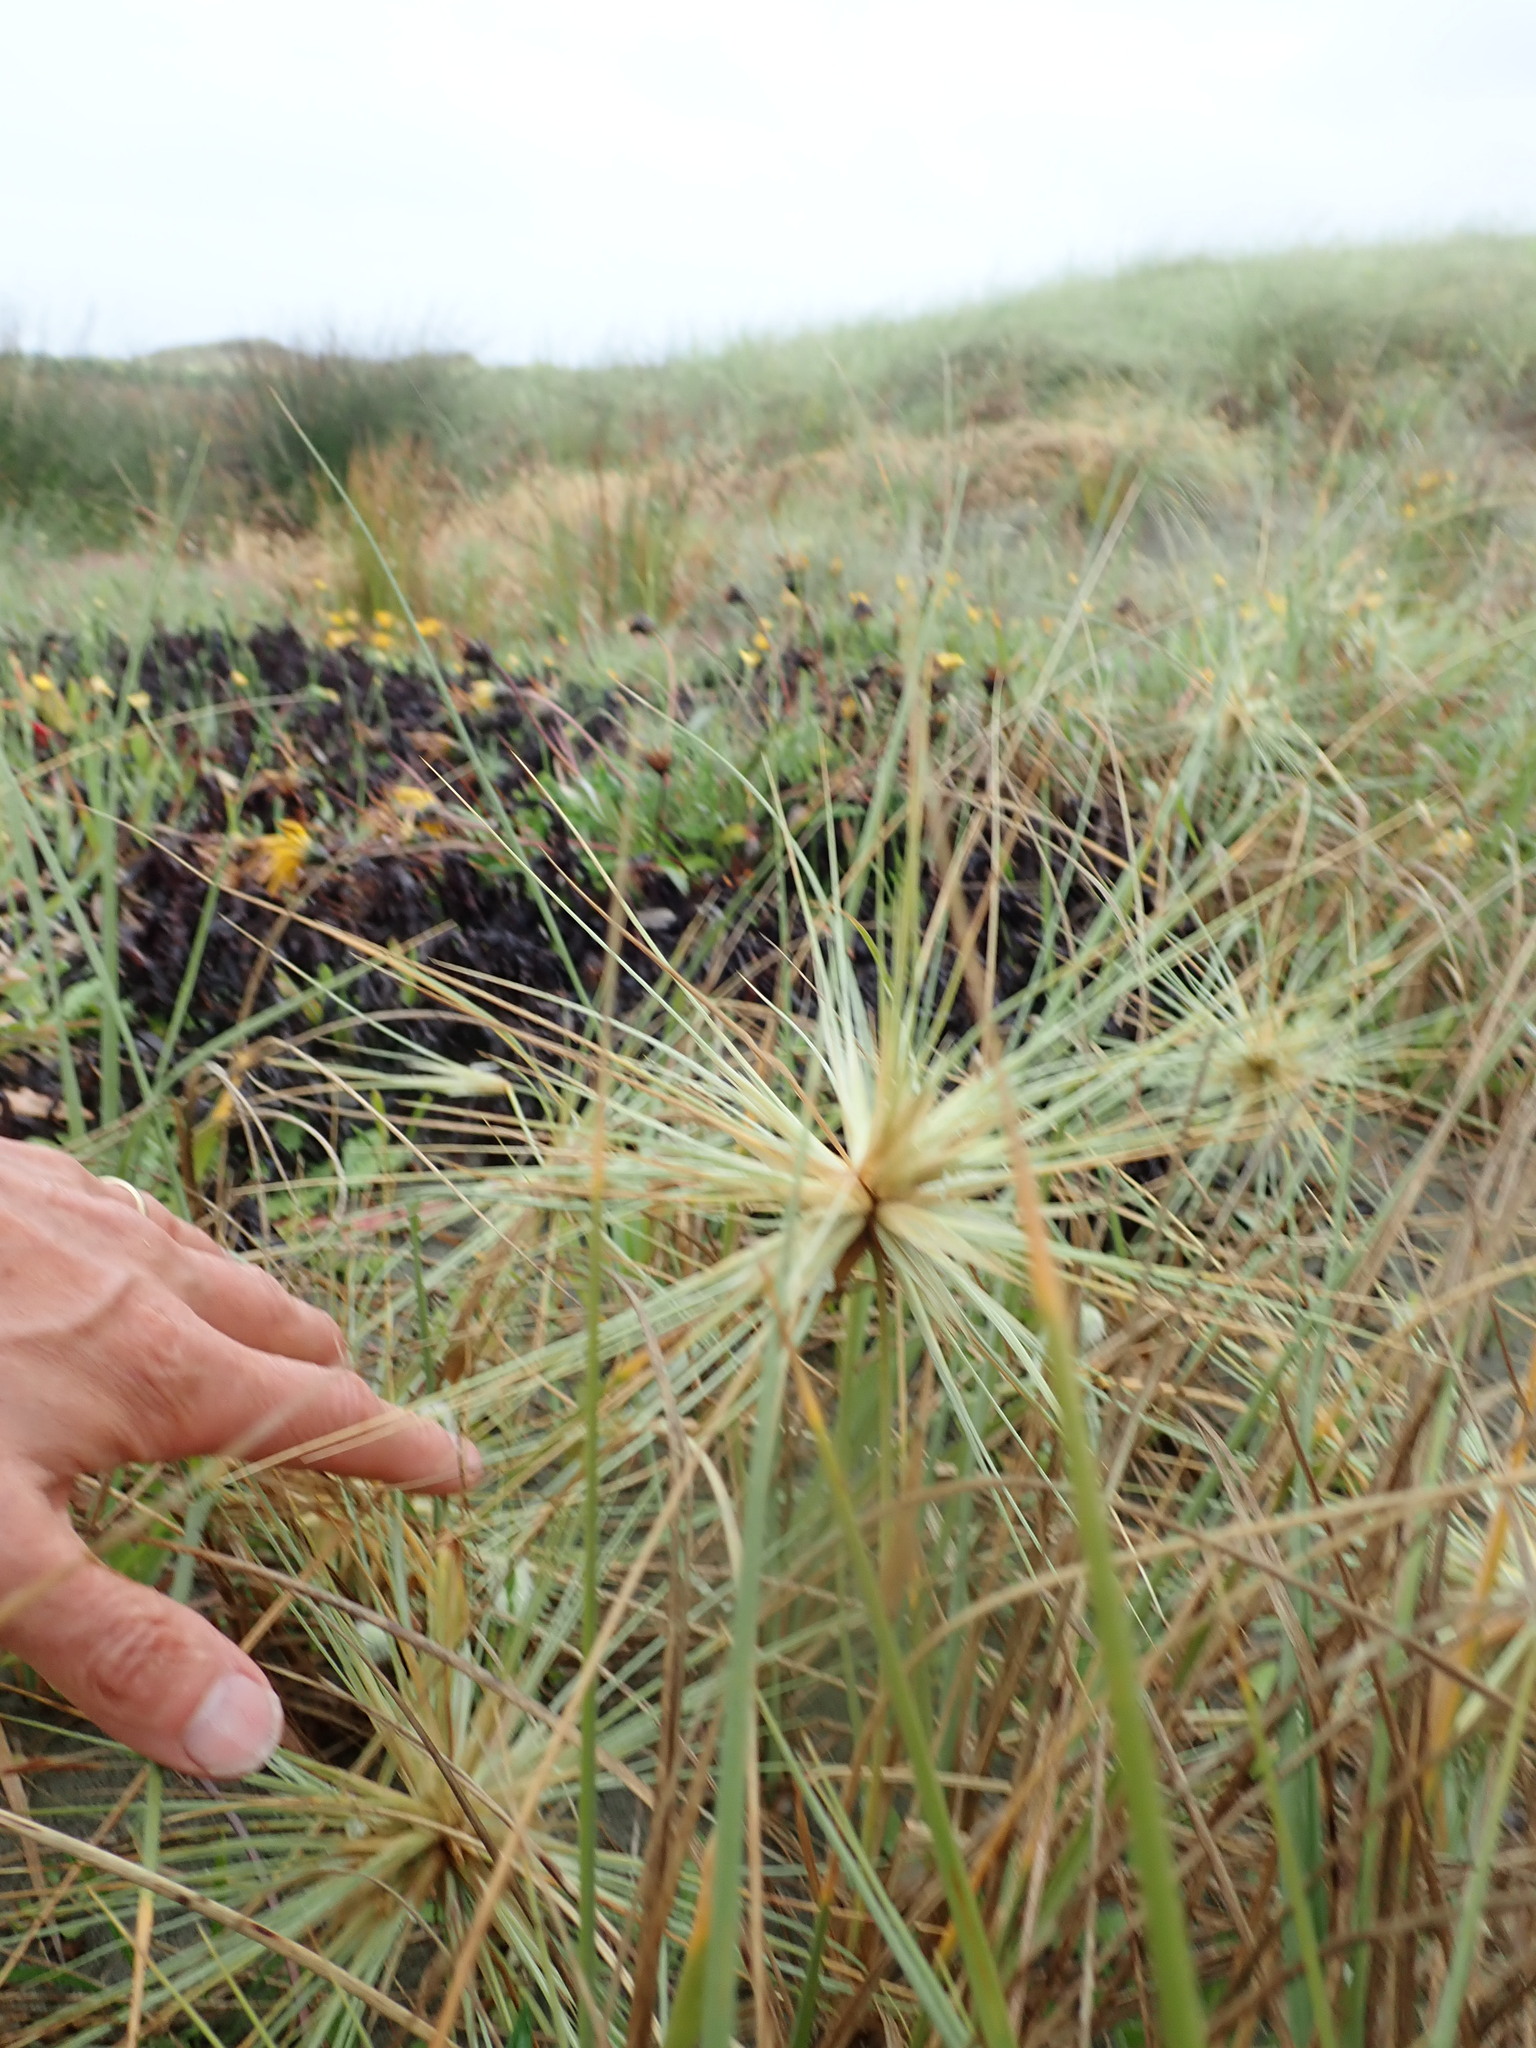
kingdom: Plantae
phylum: Tracheophyta
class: Liliopsida
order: Poales
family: Poaceae
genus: Spinifex
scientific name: Spinifex sericeus
